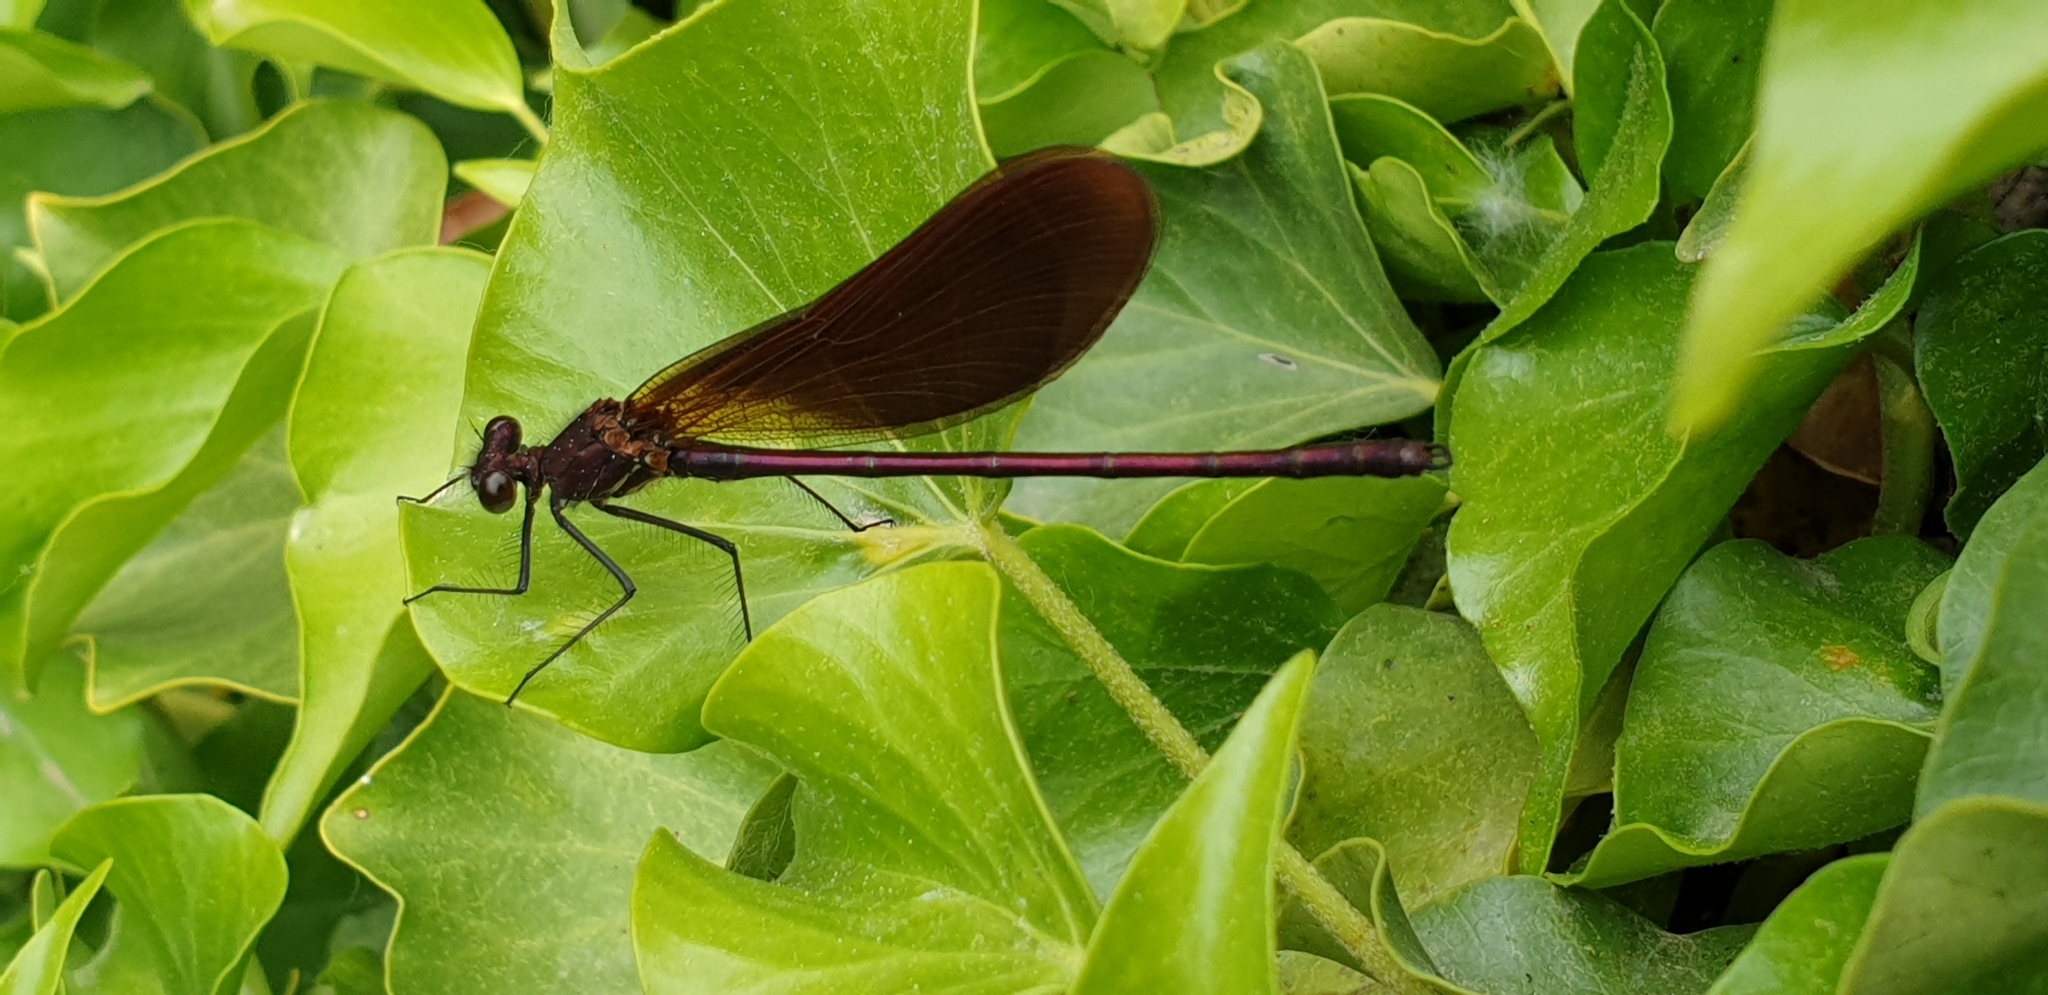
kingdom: Animalia
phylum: Arthropoda
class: Insecta
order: Odonata
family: Calopterygidae
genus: Calopteryx
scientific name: Calopteryx haemorrhoidalis
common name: Copper demoiselle
